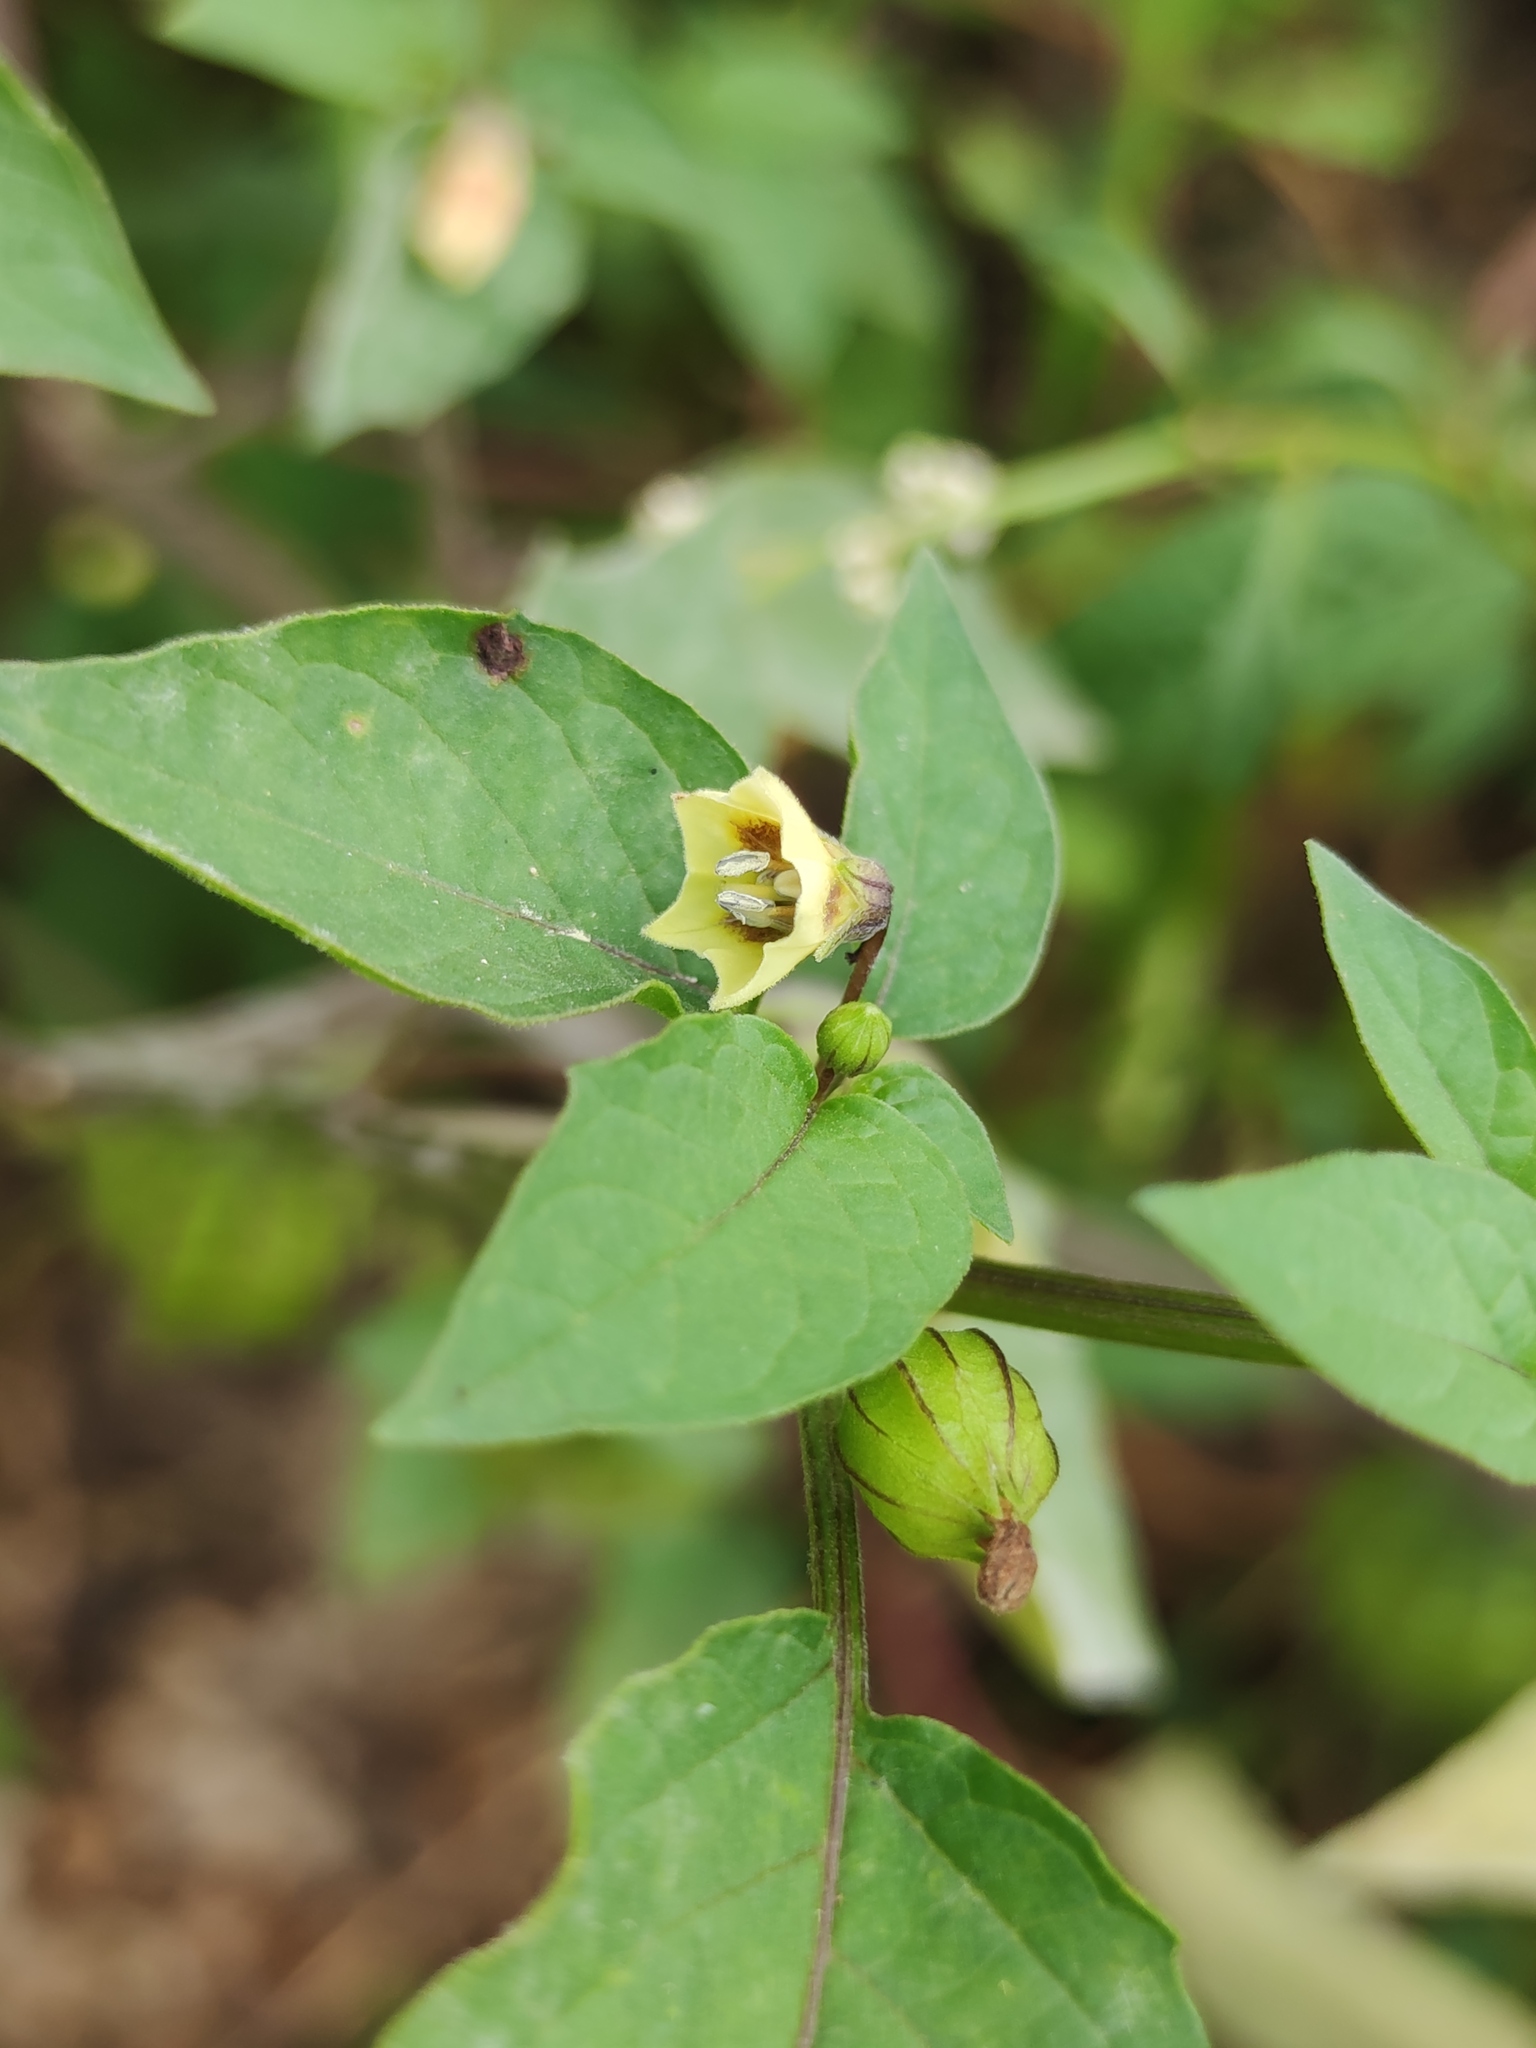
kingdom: Plantae
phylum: Tracheophyta
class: Magnoliopsida
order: Solanales
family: Solanaceae
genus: Physalis
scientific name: Physalis angulata
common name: Angular winter-cherry
